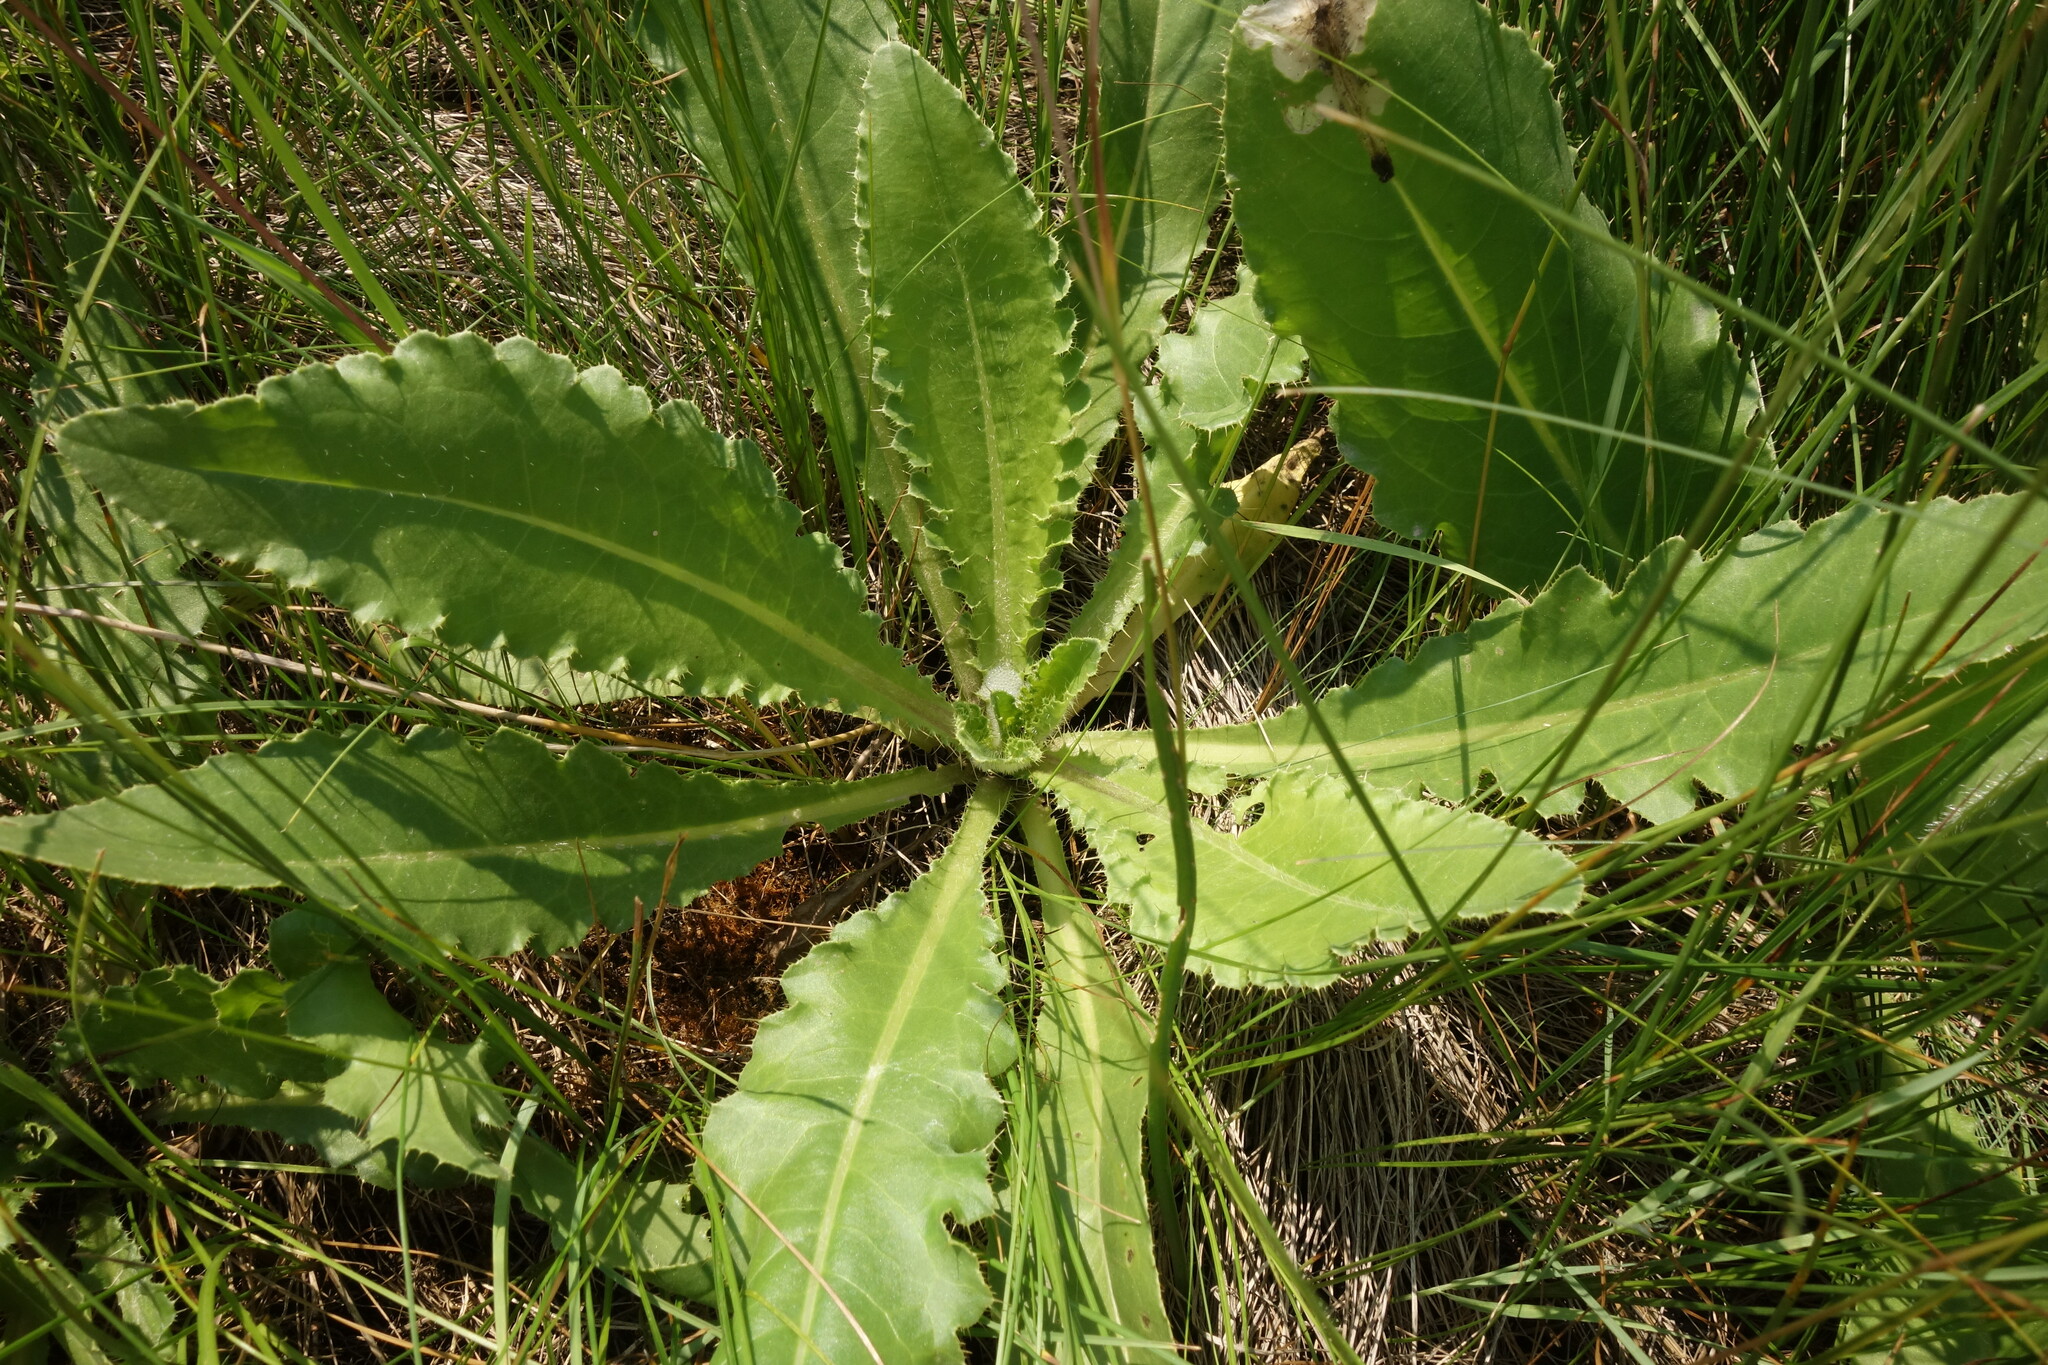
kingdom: Plantae
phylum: Tracheophyta
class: Magnoliopsida
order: Asterales
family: Asteraceae
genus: Cirsium
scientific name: Cirsium esculentum
